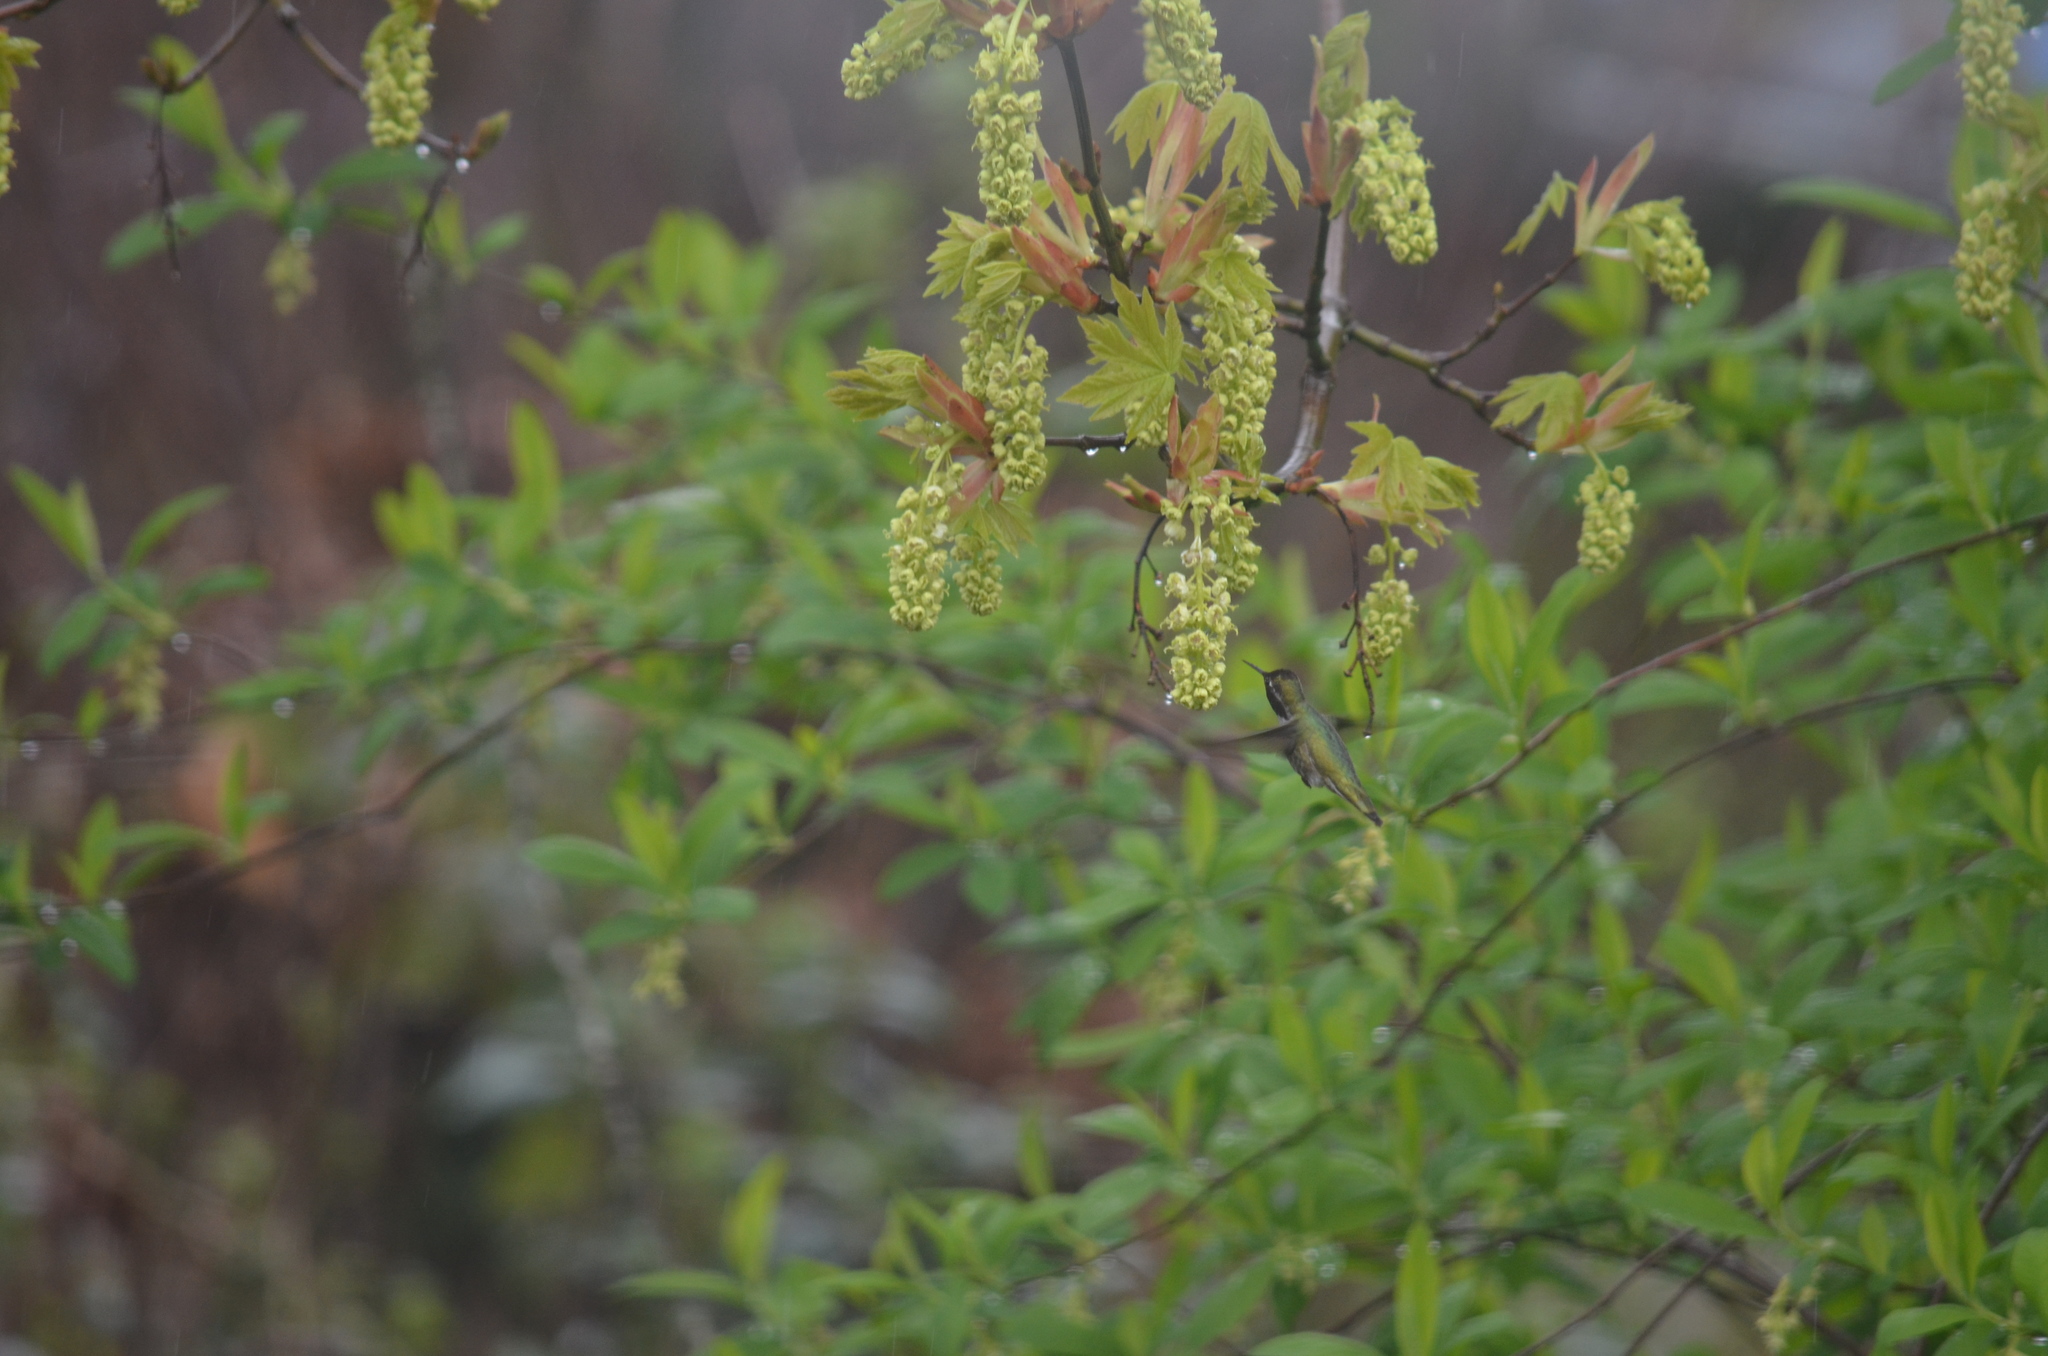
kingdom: Animalia
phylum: Chordata
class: Aves
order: Apodiformes
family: Trochilidae
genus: Calypte
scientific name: Calypte anna
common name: Anna's hummingbird
